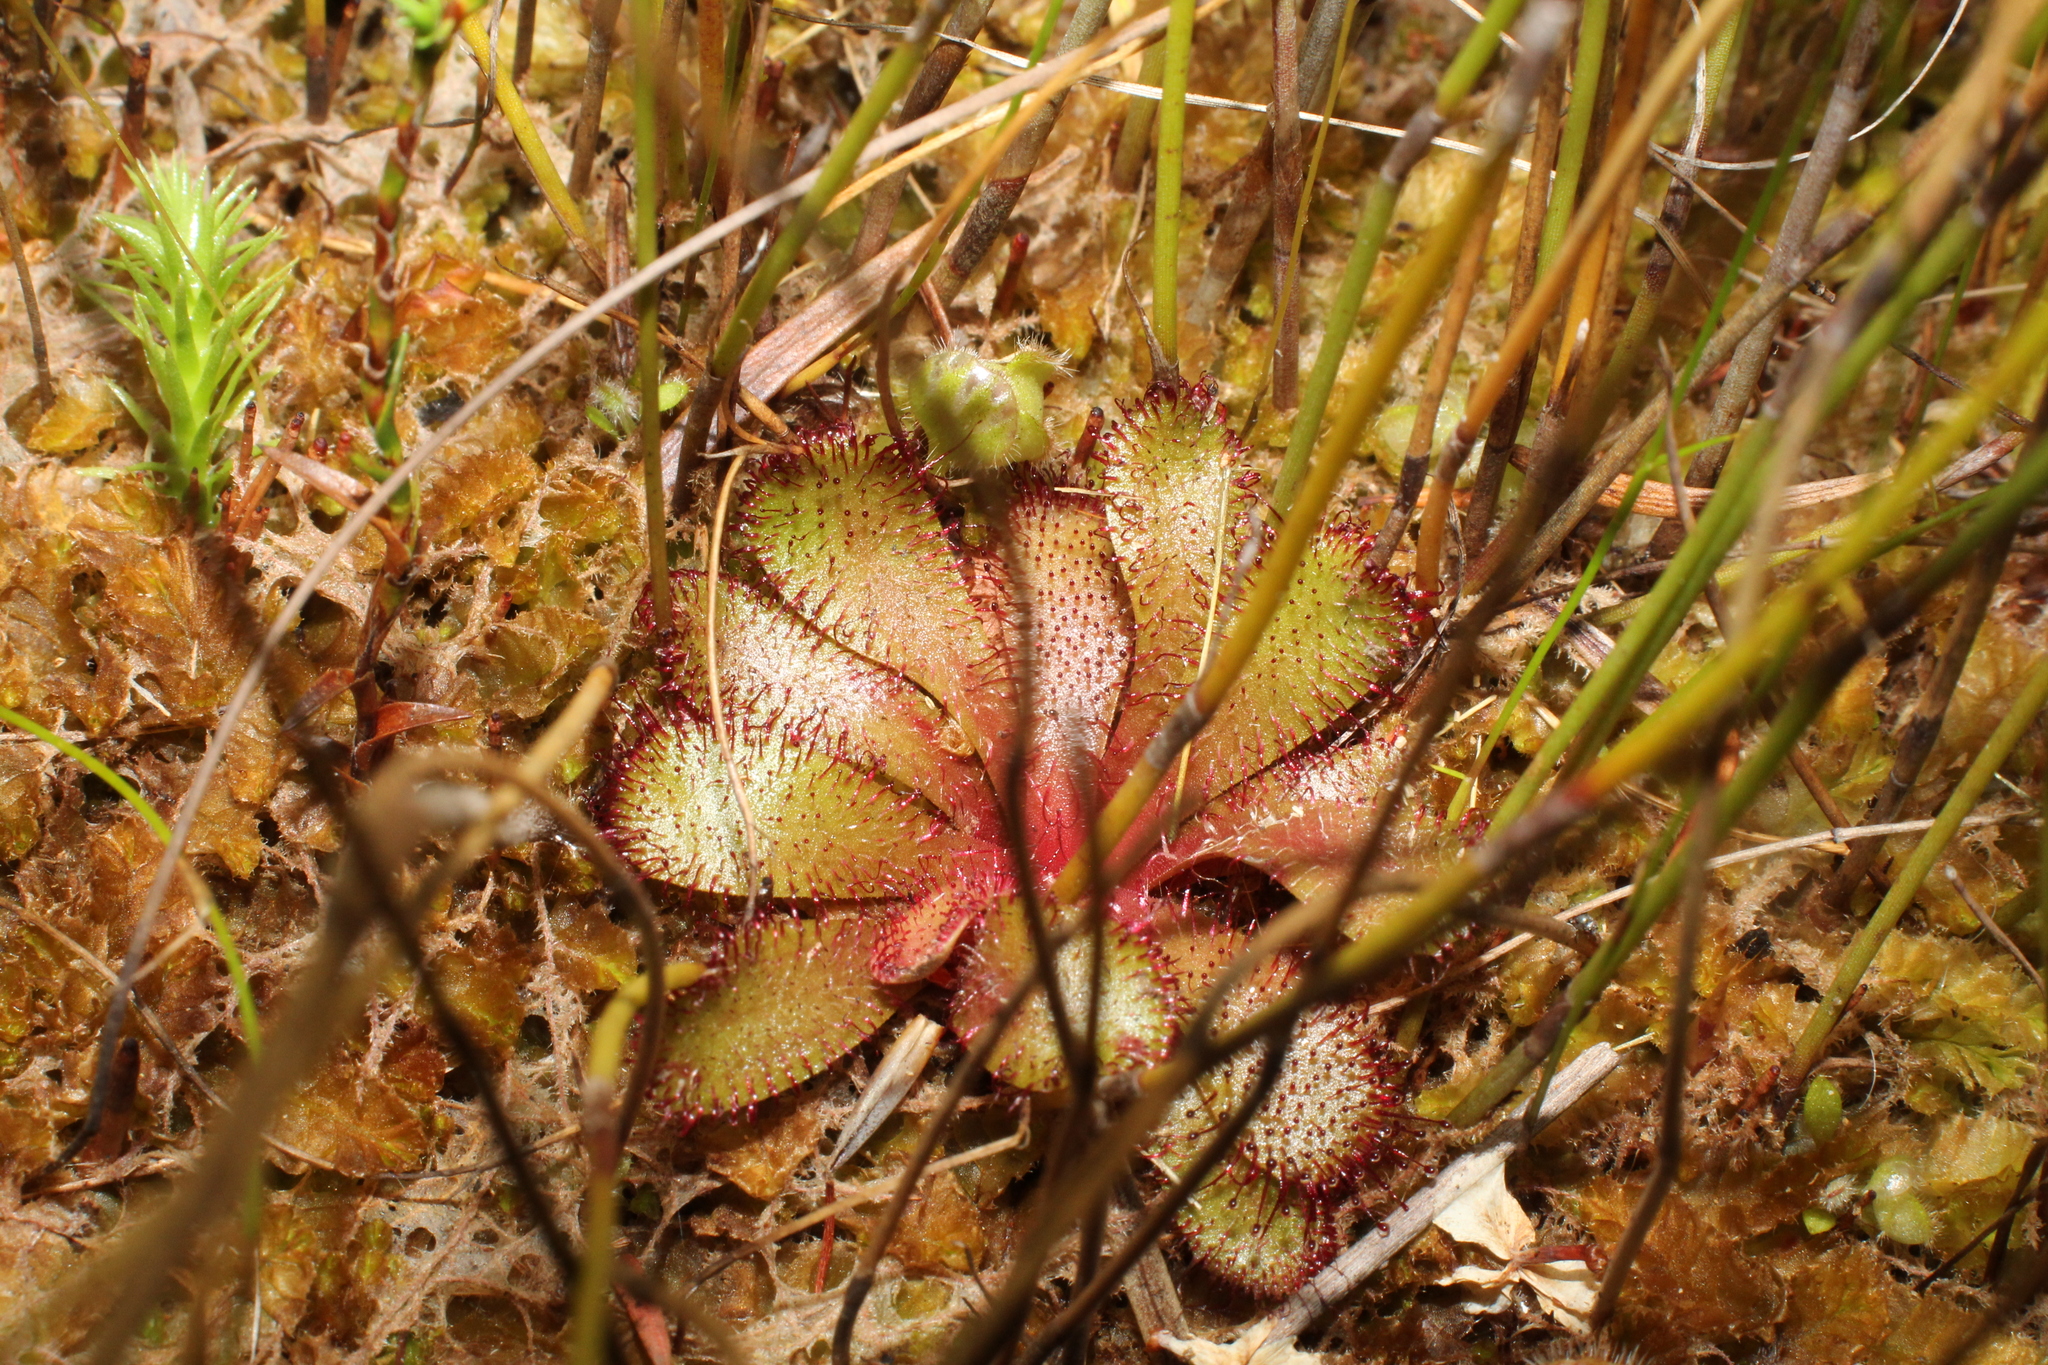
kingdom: Plantae
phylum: Tracheophyta
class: Magnoliopsida
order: Caryophyllales
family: Droseraceae
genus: Drosera
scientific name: Drosera hamiltonii
